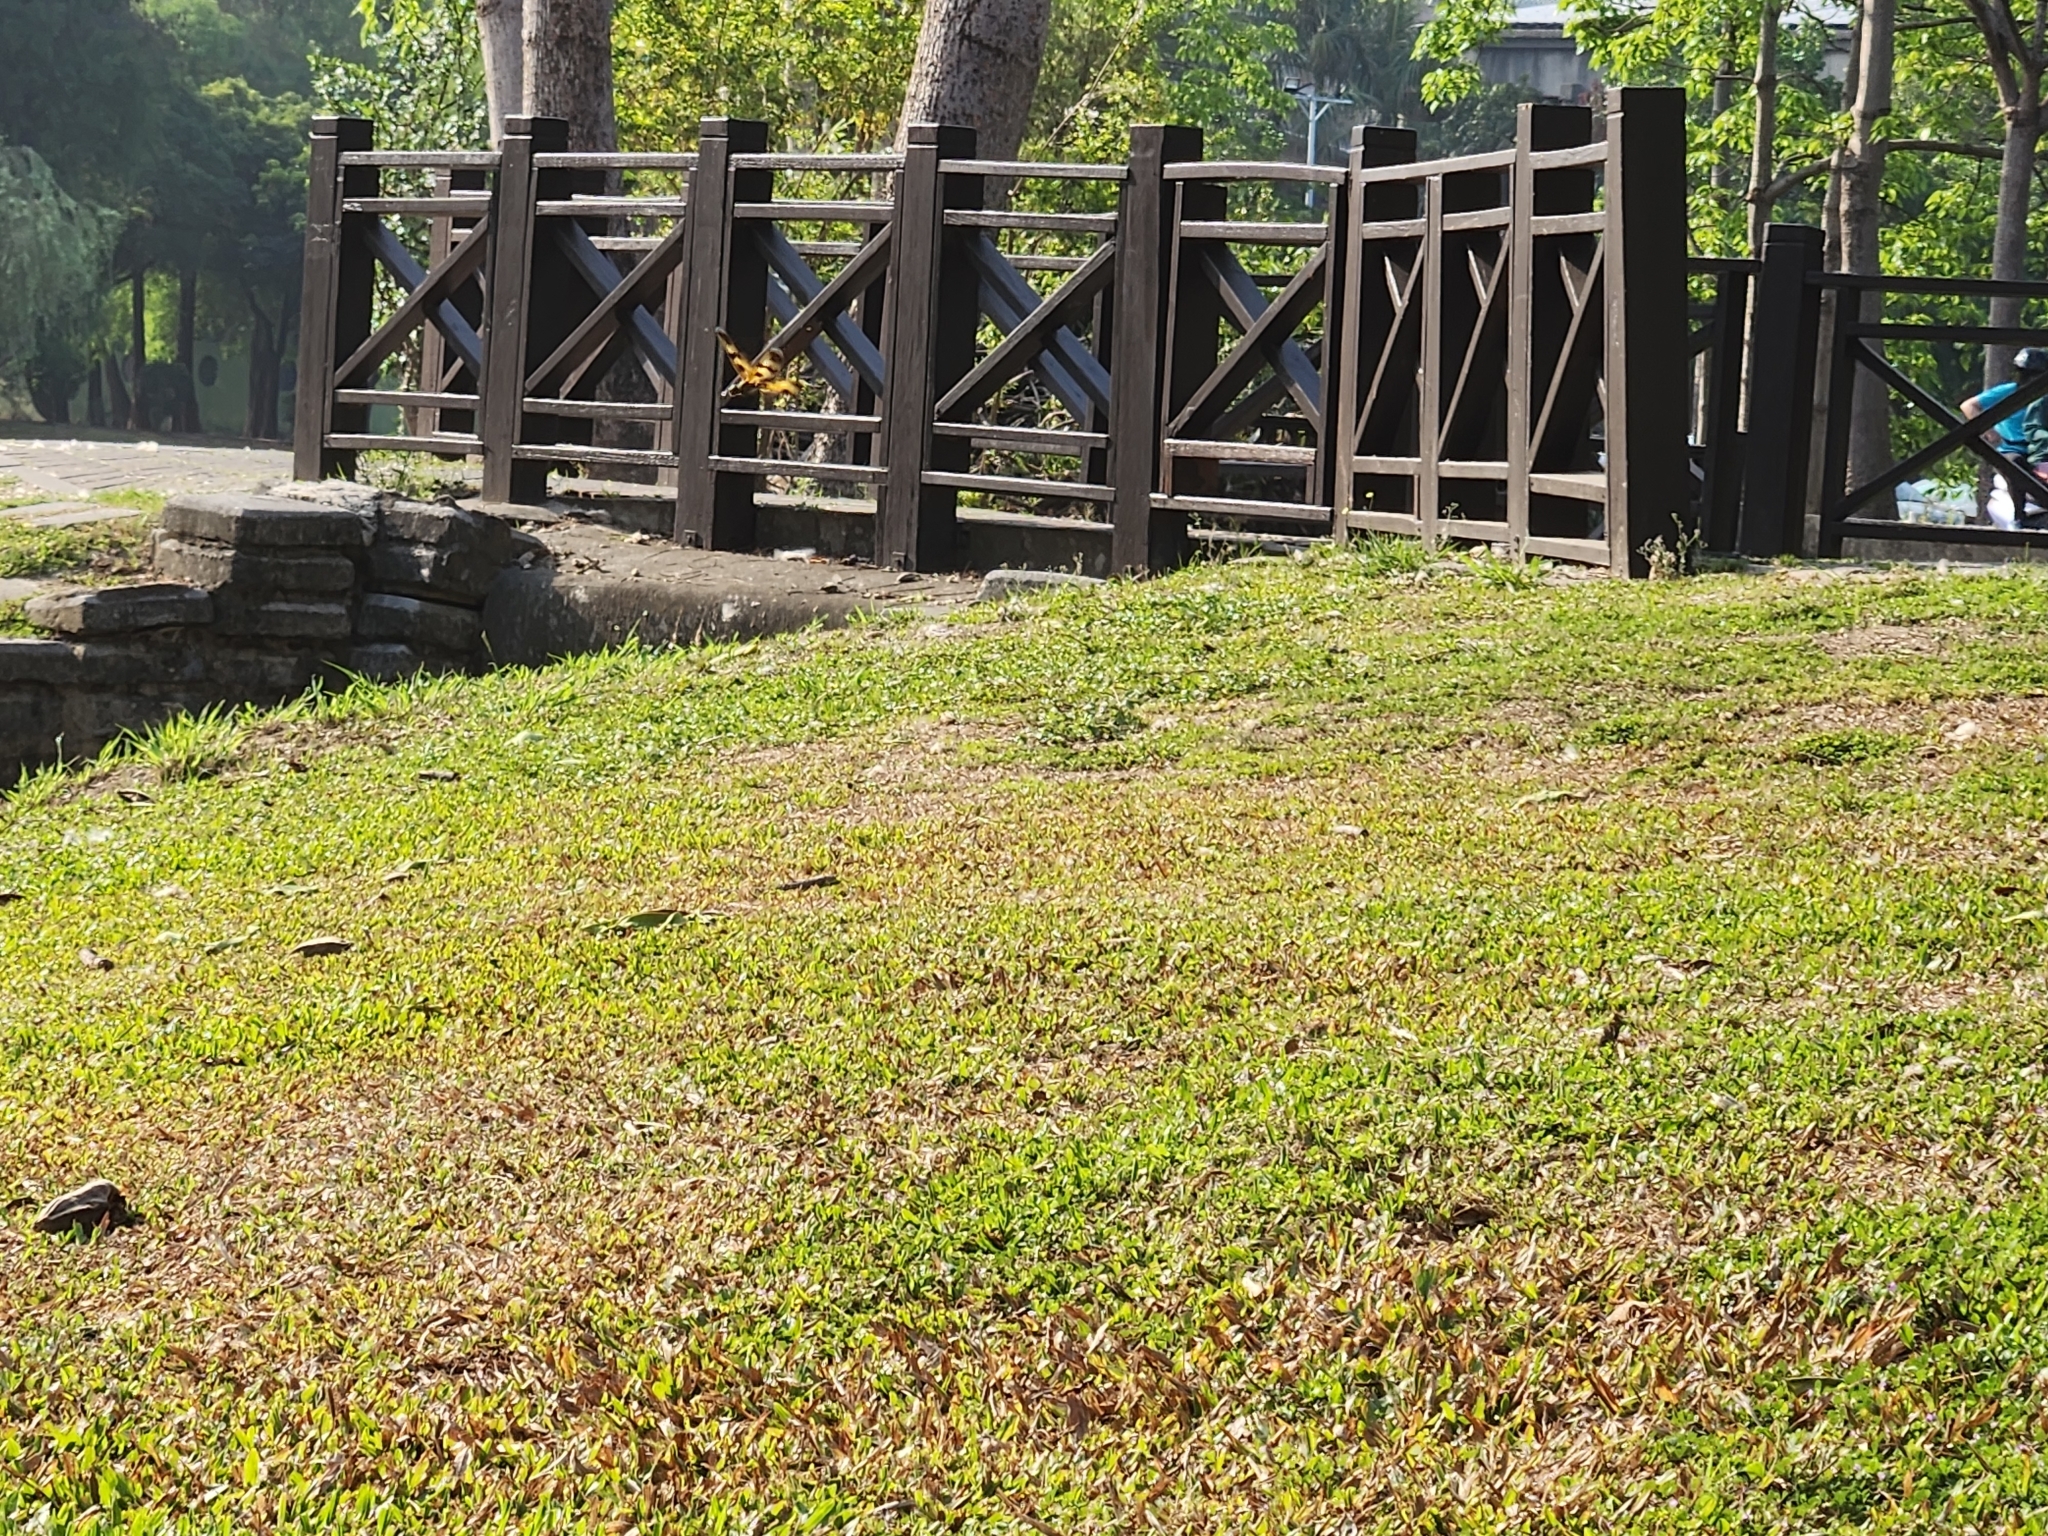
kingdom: Animalia
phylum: Arthropoda
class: Insecta
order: Odonata
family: Libellulidae
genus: Rhyothemis
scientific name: Rhyothemis variegata
